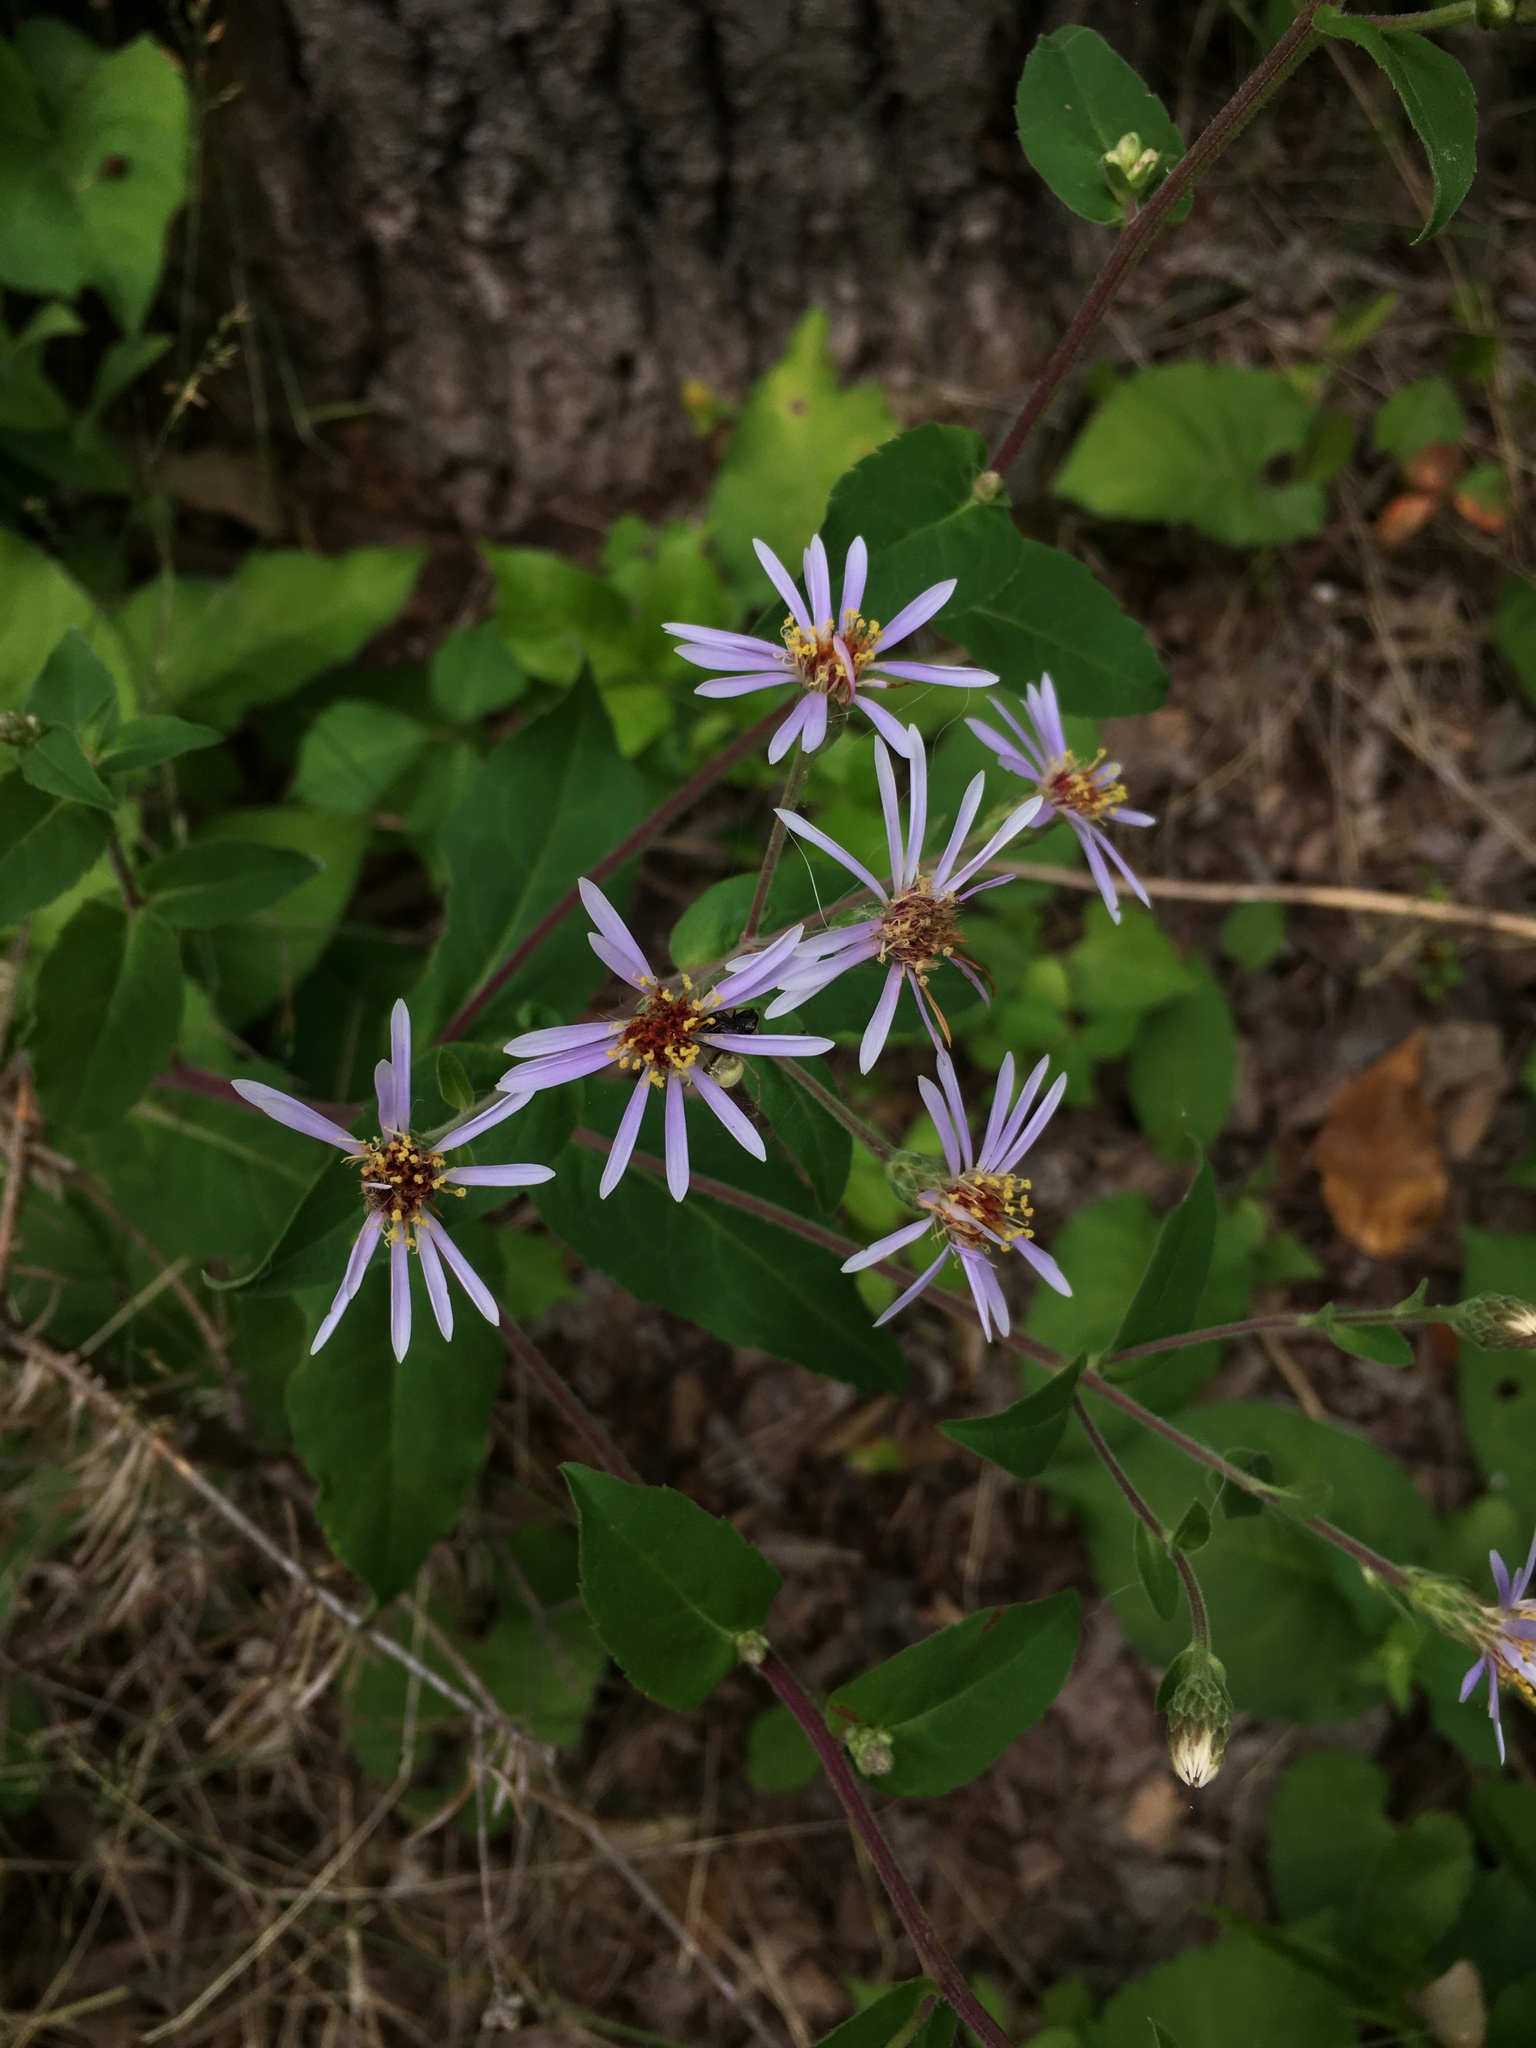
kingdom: Plantae
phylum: Tracheophyta
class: Magnoliopsida
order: Asterales
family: Asteraceae
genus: Eurybia
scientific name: Eurybia macrophylla
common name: Big-leaved aster
